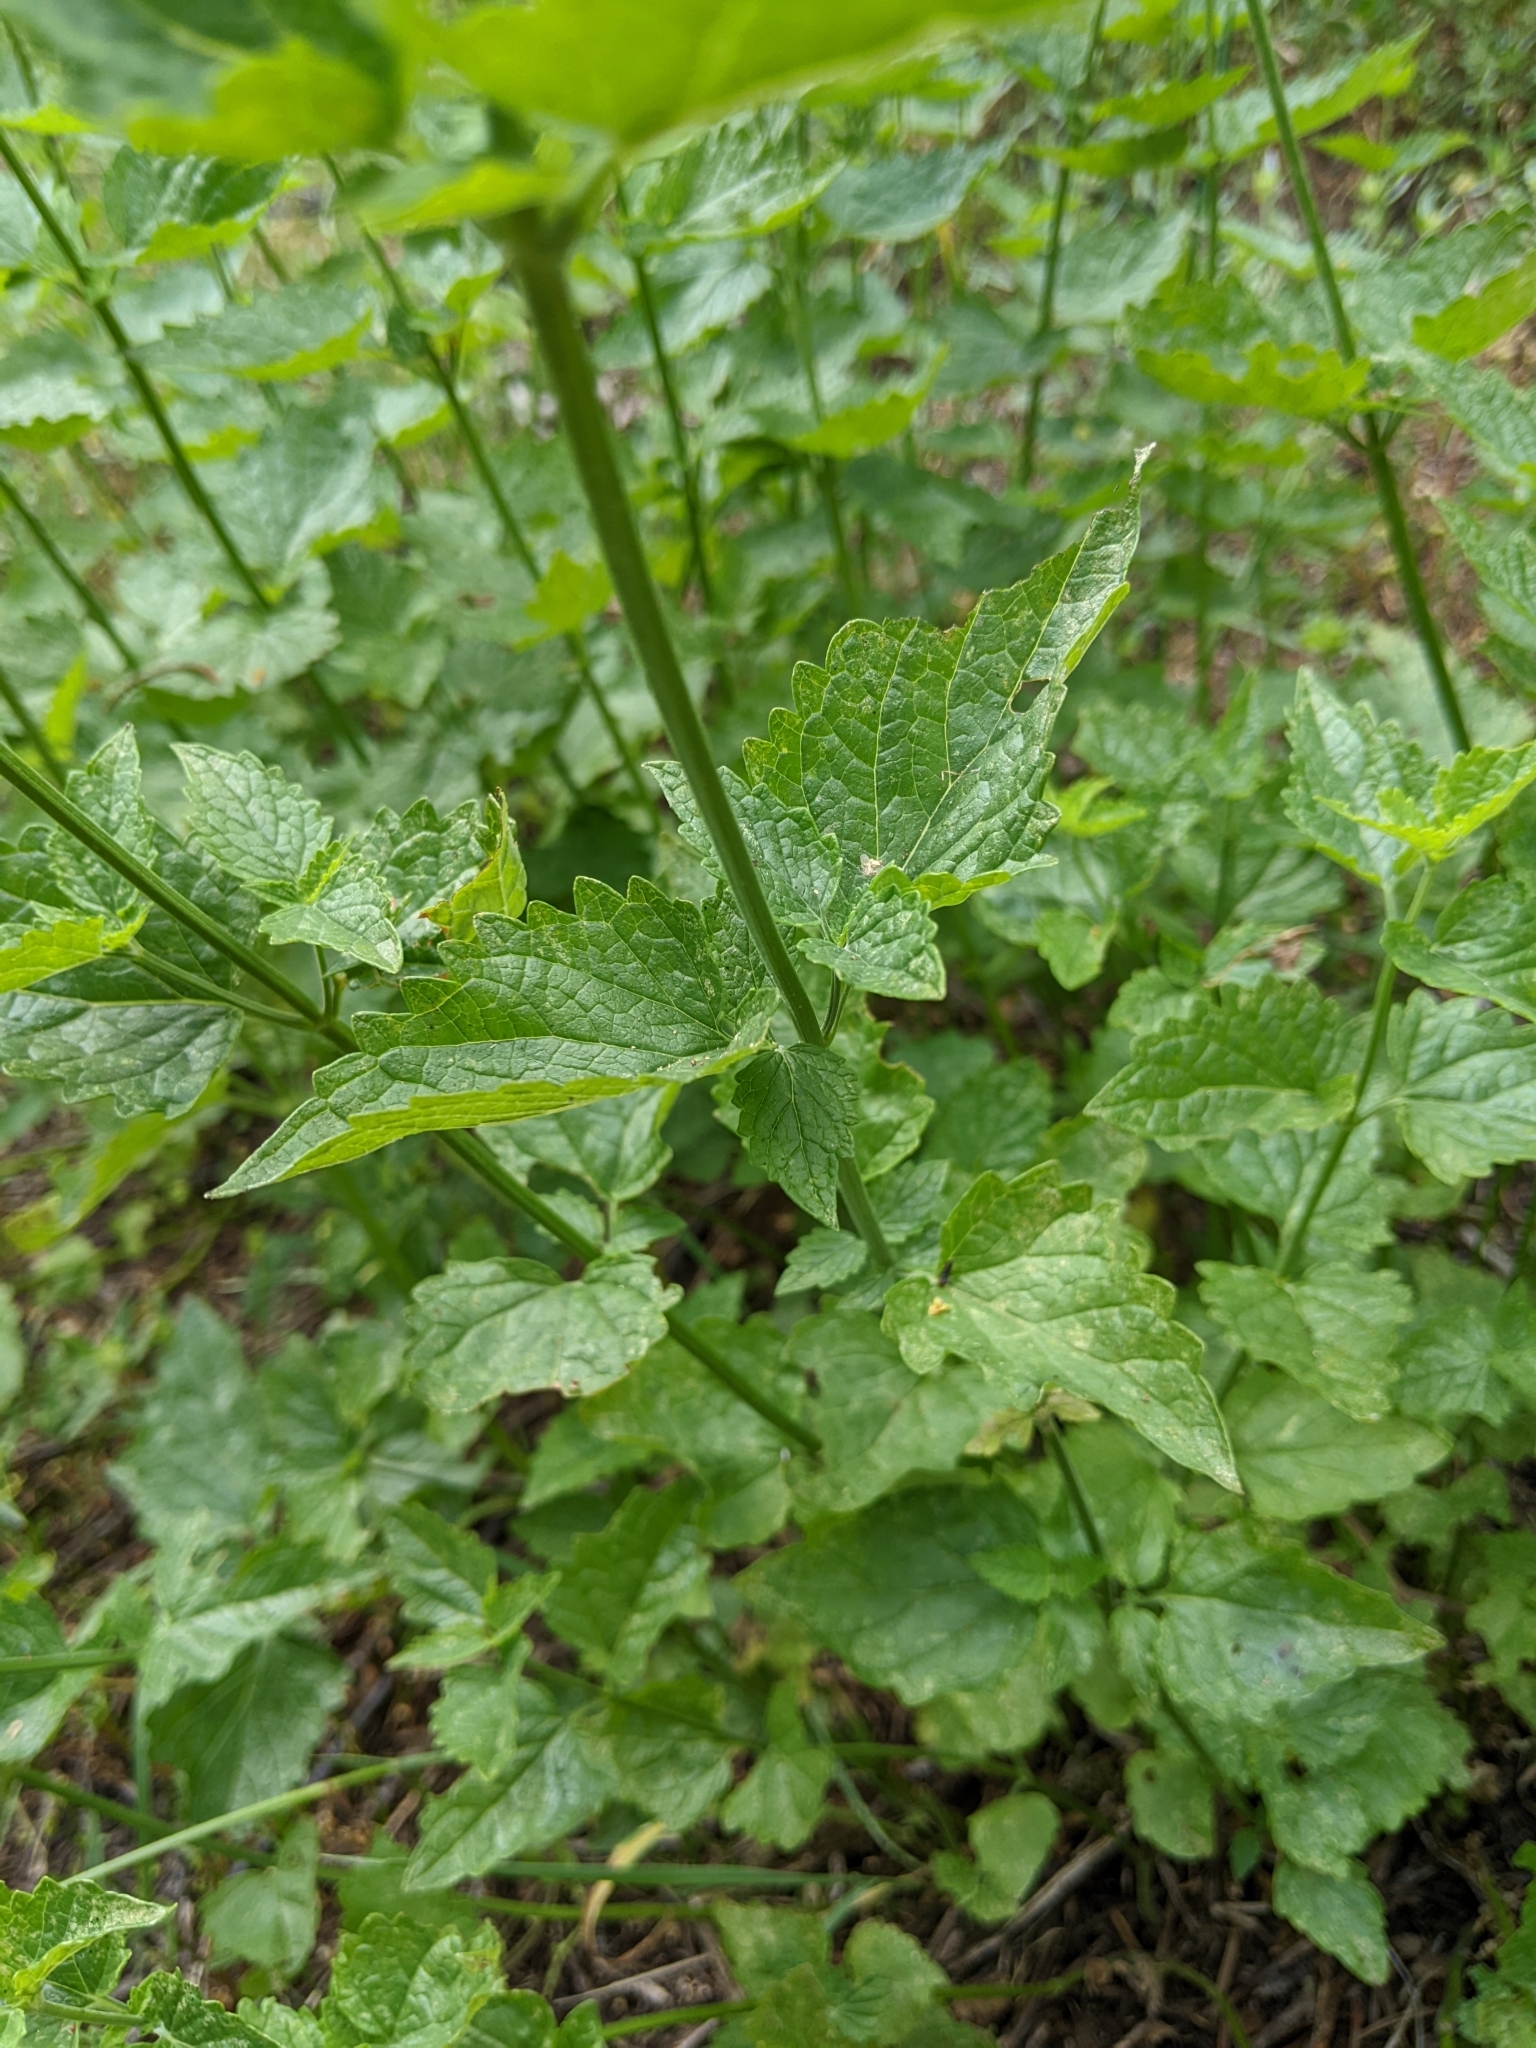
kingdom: Plantae
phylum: Tracheophyta
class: Magnoliopsida
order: Lamiales
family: Lamiaceae
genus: Agastache
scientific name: Agastache urticifolia
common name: Horsemint giant hyssop
